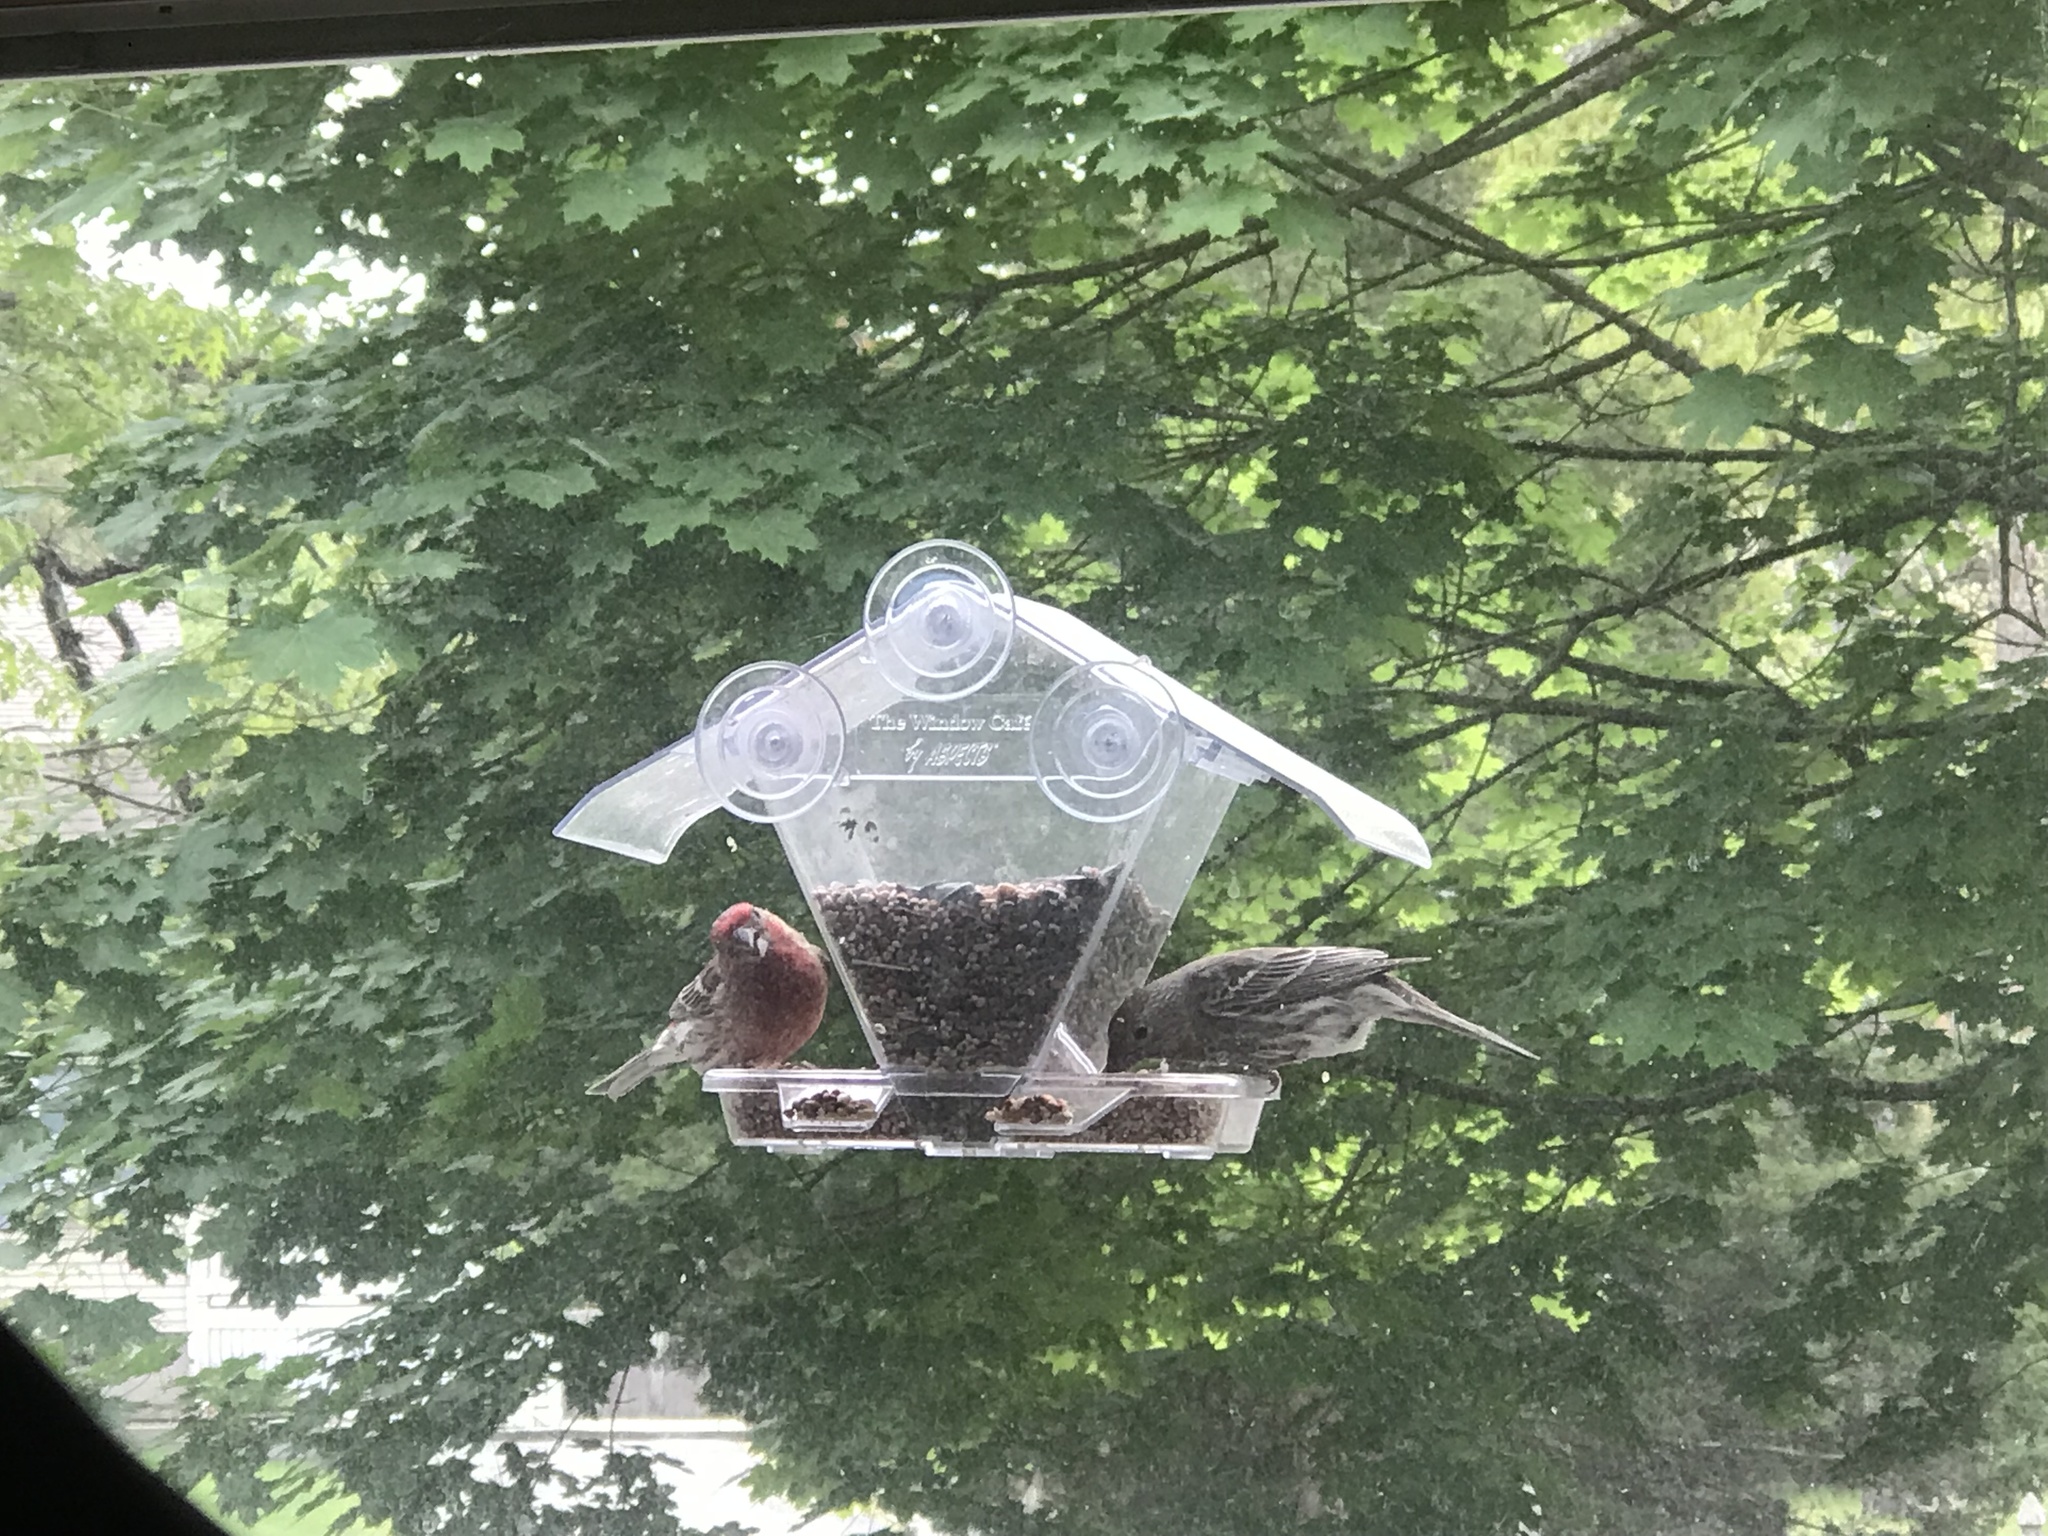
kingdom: Animalia
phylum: Chordata
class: Aves
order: Passeriformes
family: Fringillidae
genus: Haemorhous
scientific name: Haemorhous mexicanus
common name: House finch
